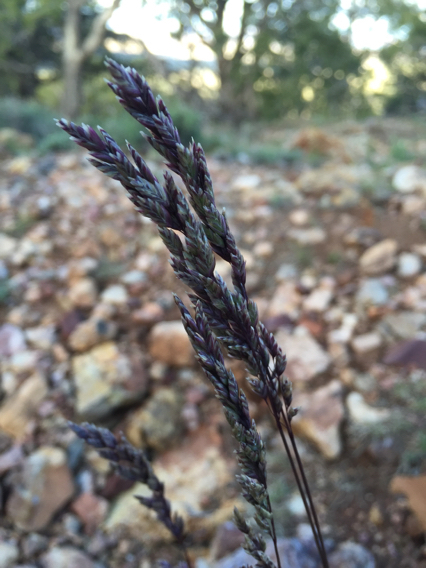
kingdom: Plantae
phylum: Tracheophyta
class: Liliopsida
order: Poales
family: Poaceae
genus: Poa
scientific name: Poa fendleriana
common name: Mutton bluegrass
